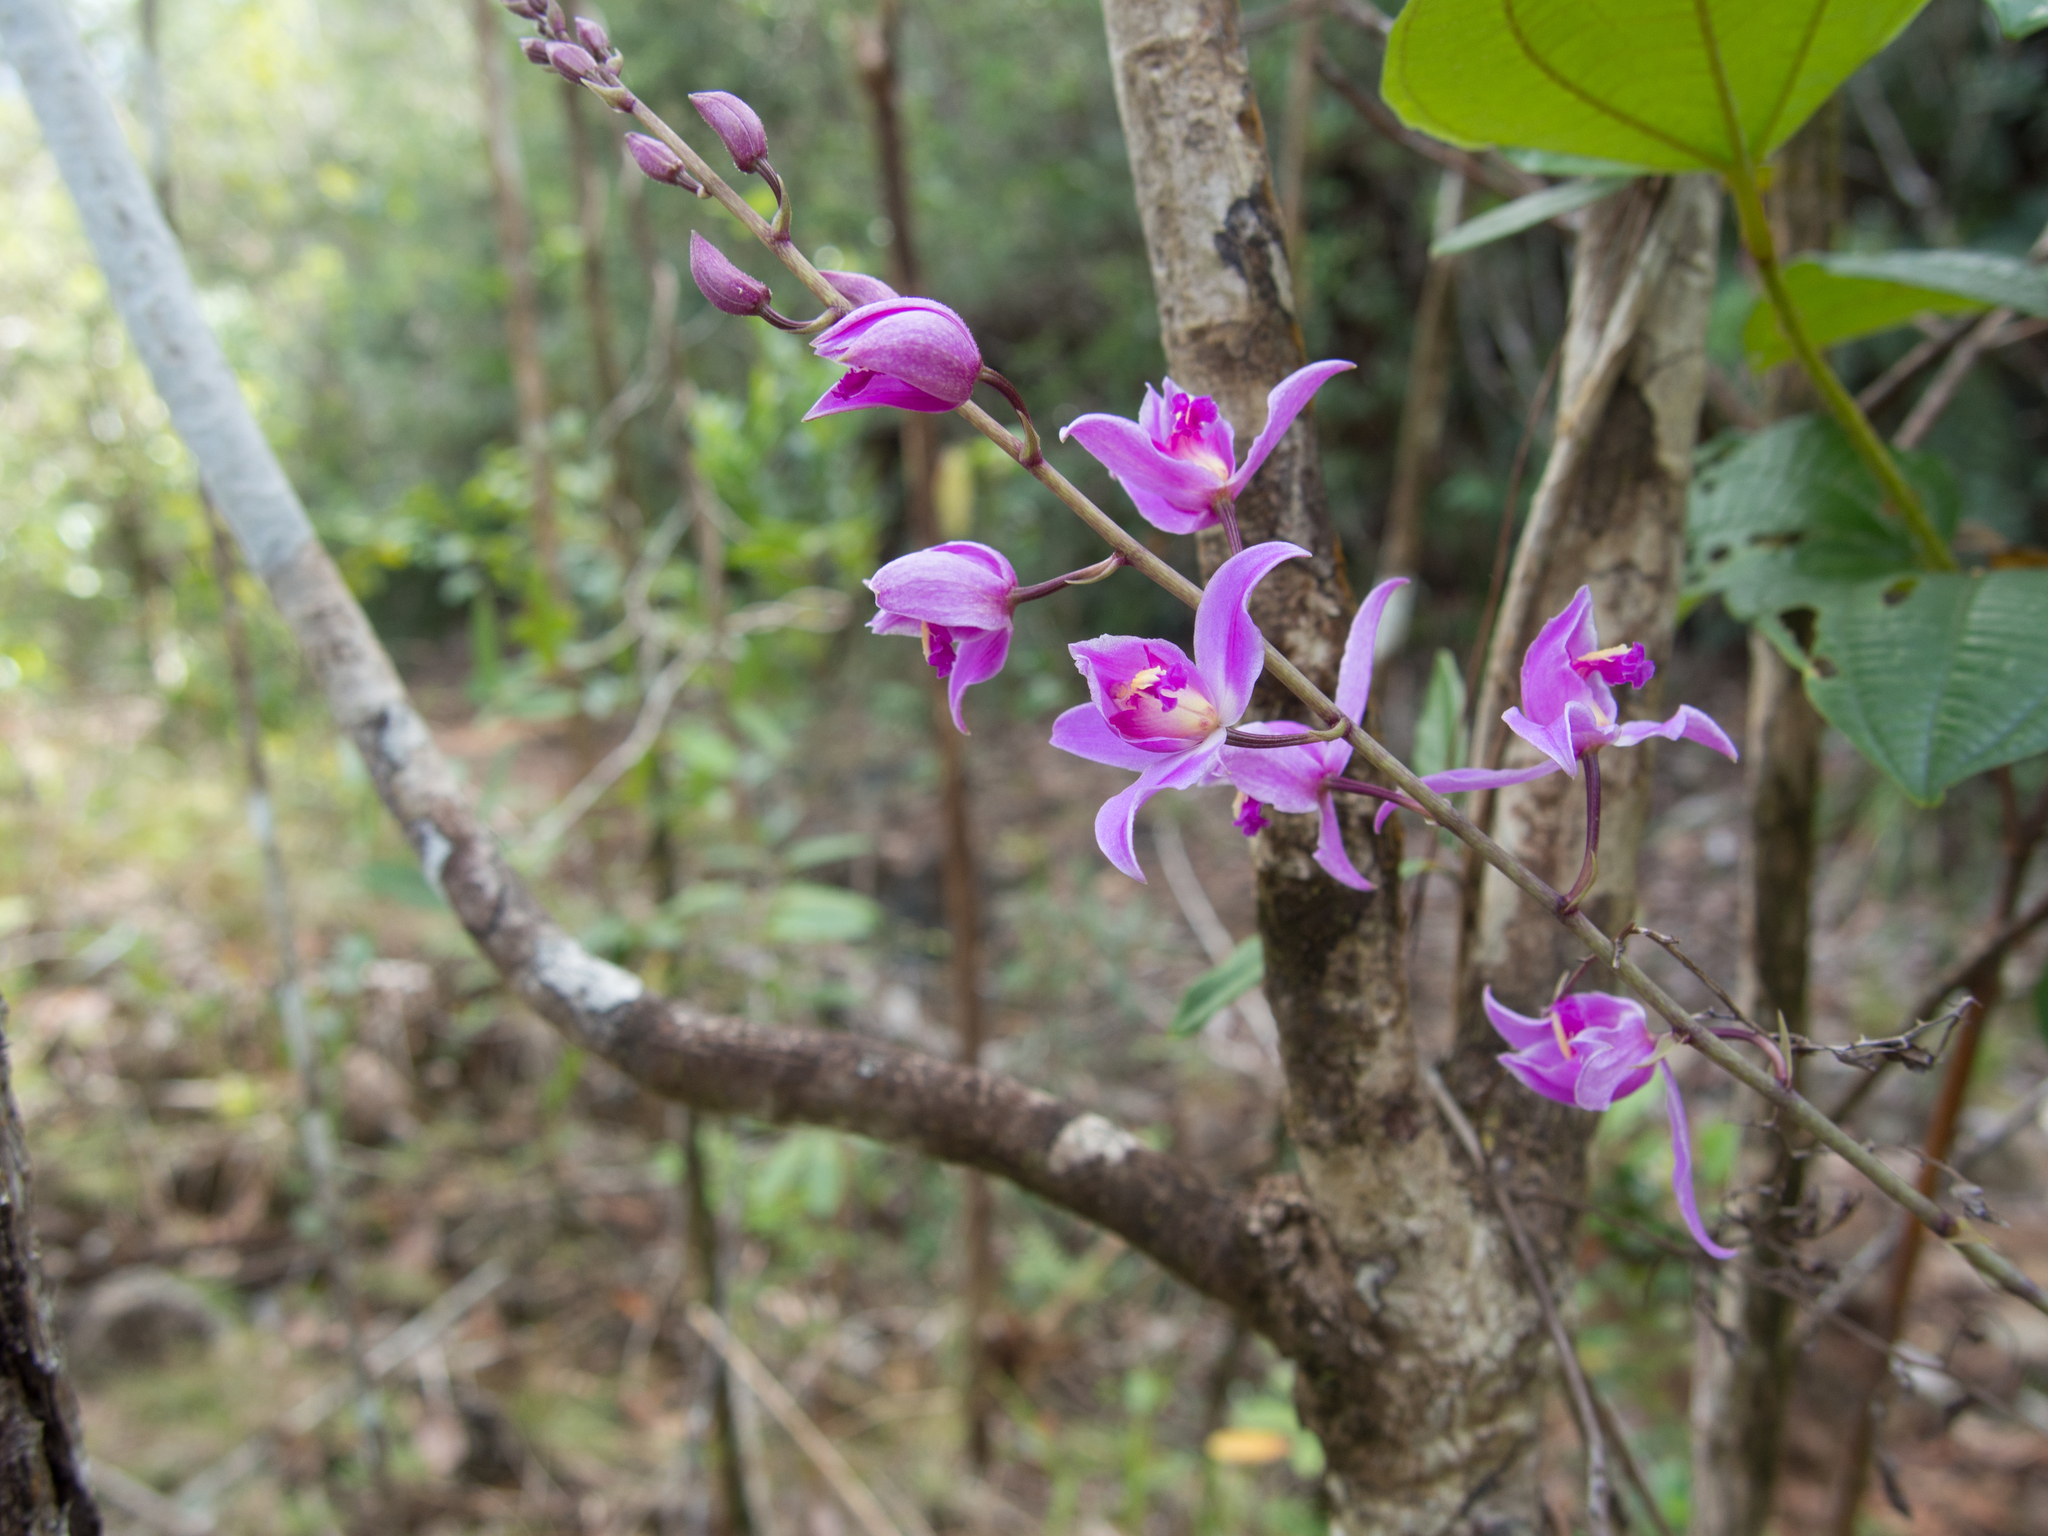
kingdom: Plantae
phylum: Tracheophyta
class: Liliopsida
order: Asparagales
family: Orchidaceae
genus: Bletia
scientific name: Bletia purpurea
